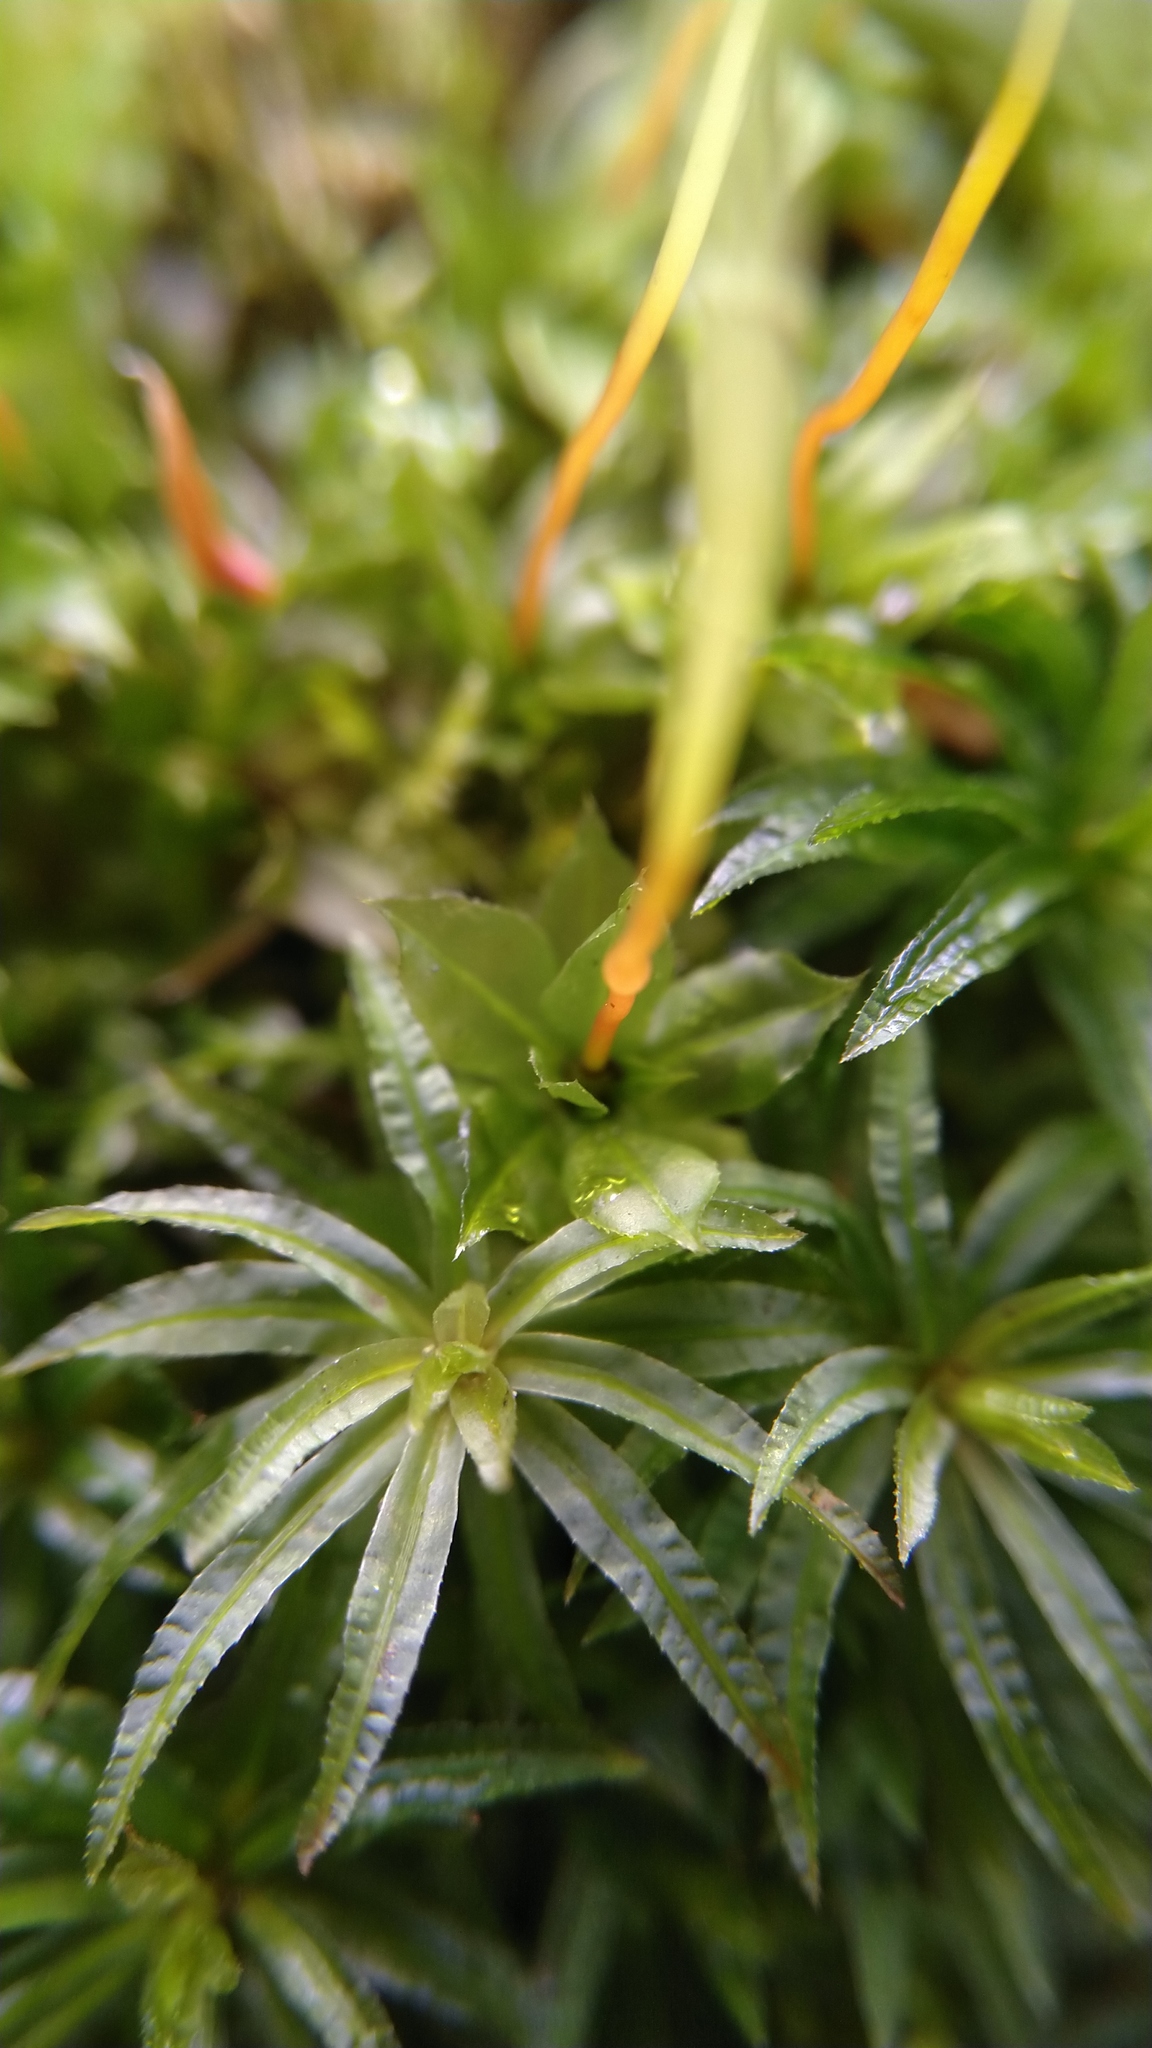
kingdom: Plantae
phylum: Bryophyta
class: Polytrichopsida
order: Polytrichales
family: Polytrichaceae
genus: Atrichum
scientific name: Atrichum undulatum
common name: Common smoothcap
